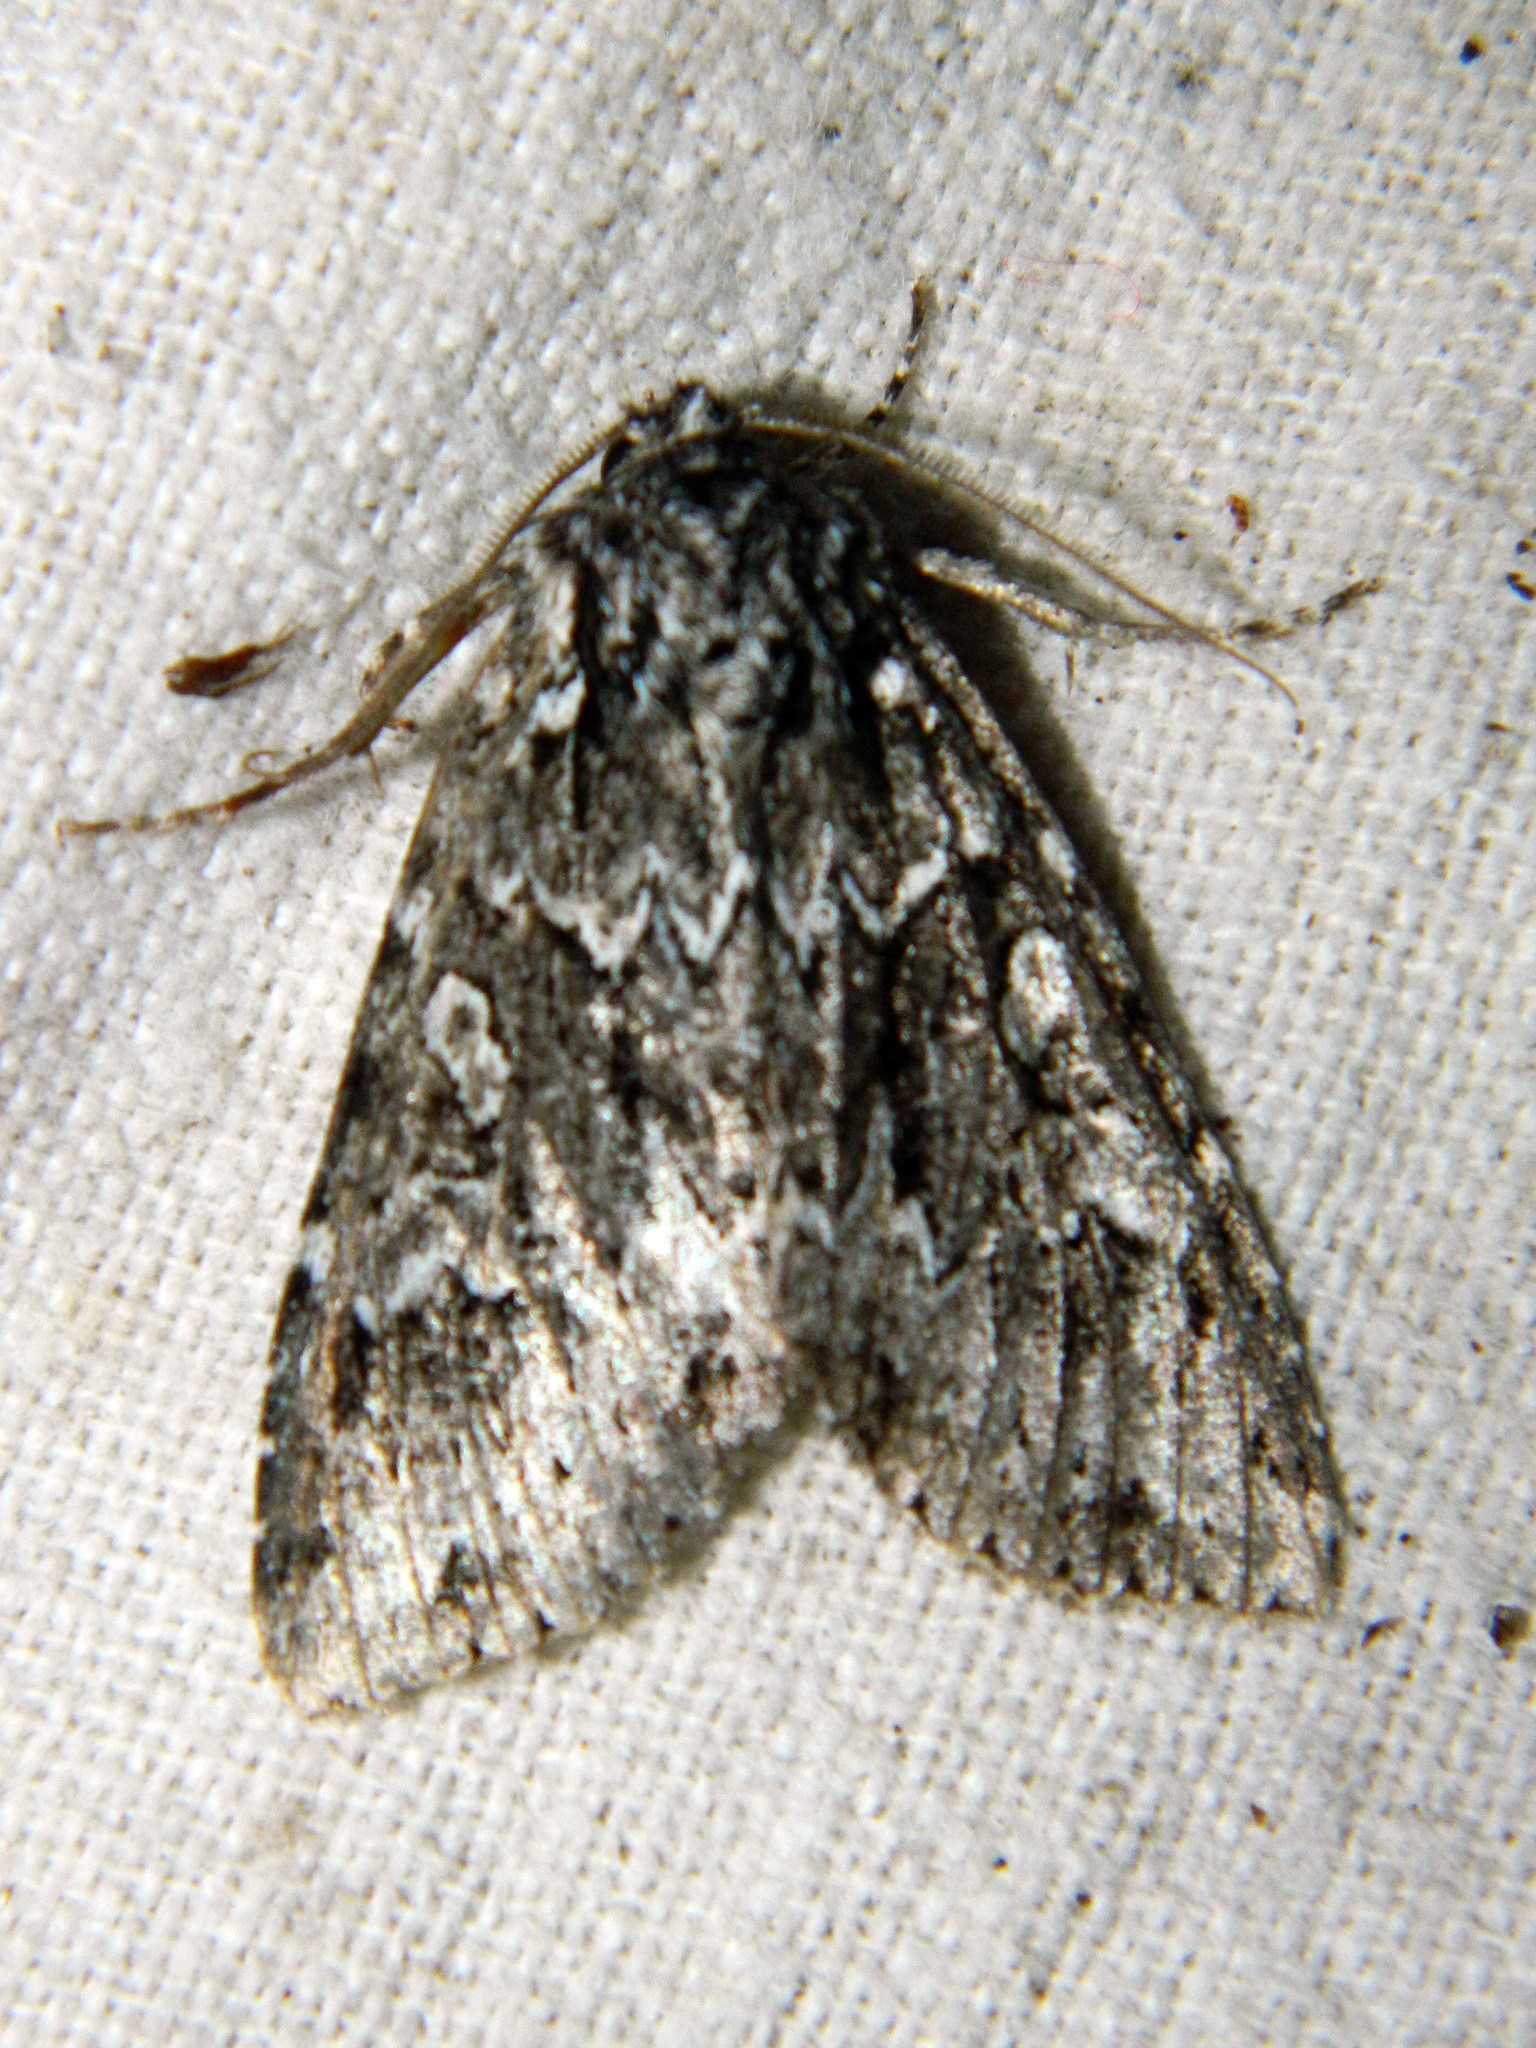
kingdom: Animalia
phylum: Arthropoda
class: Insecta
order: Lepidoptera
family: Noctuidae
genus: Platypolia
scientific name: Platypolia anceps
